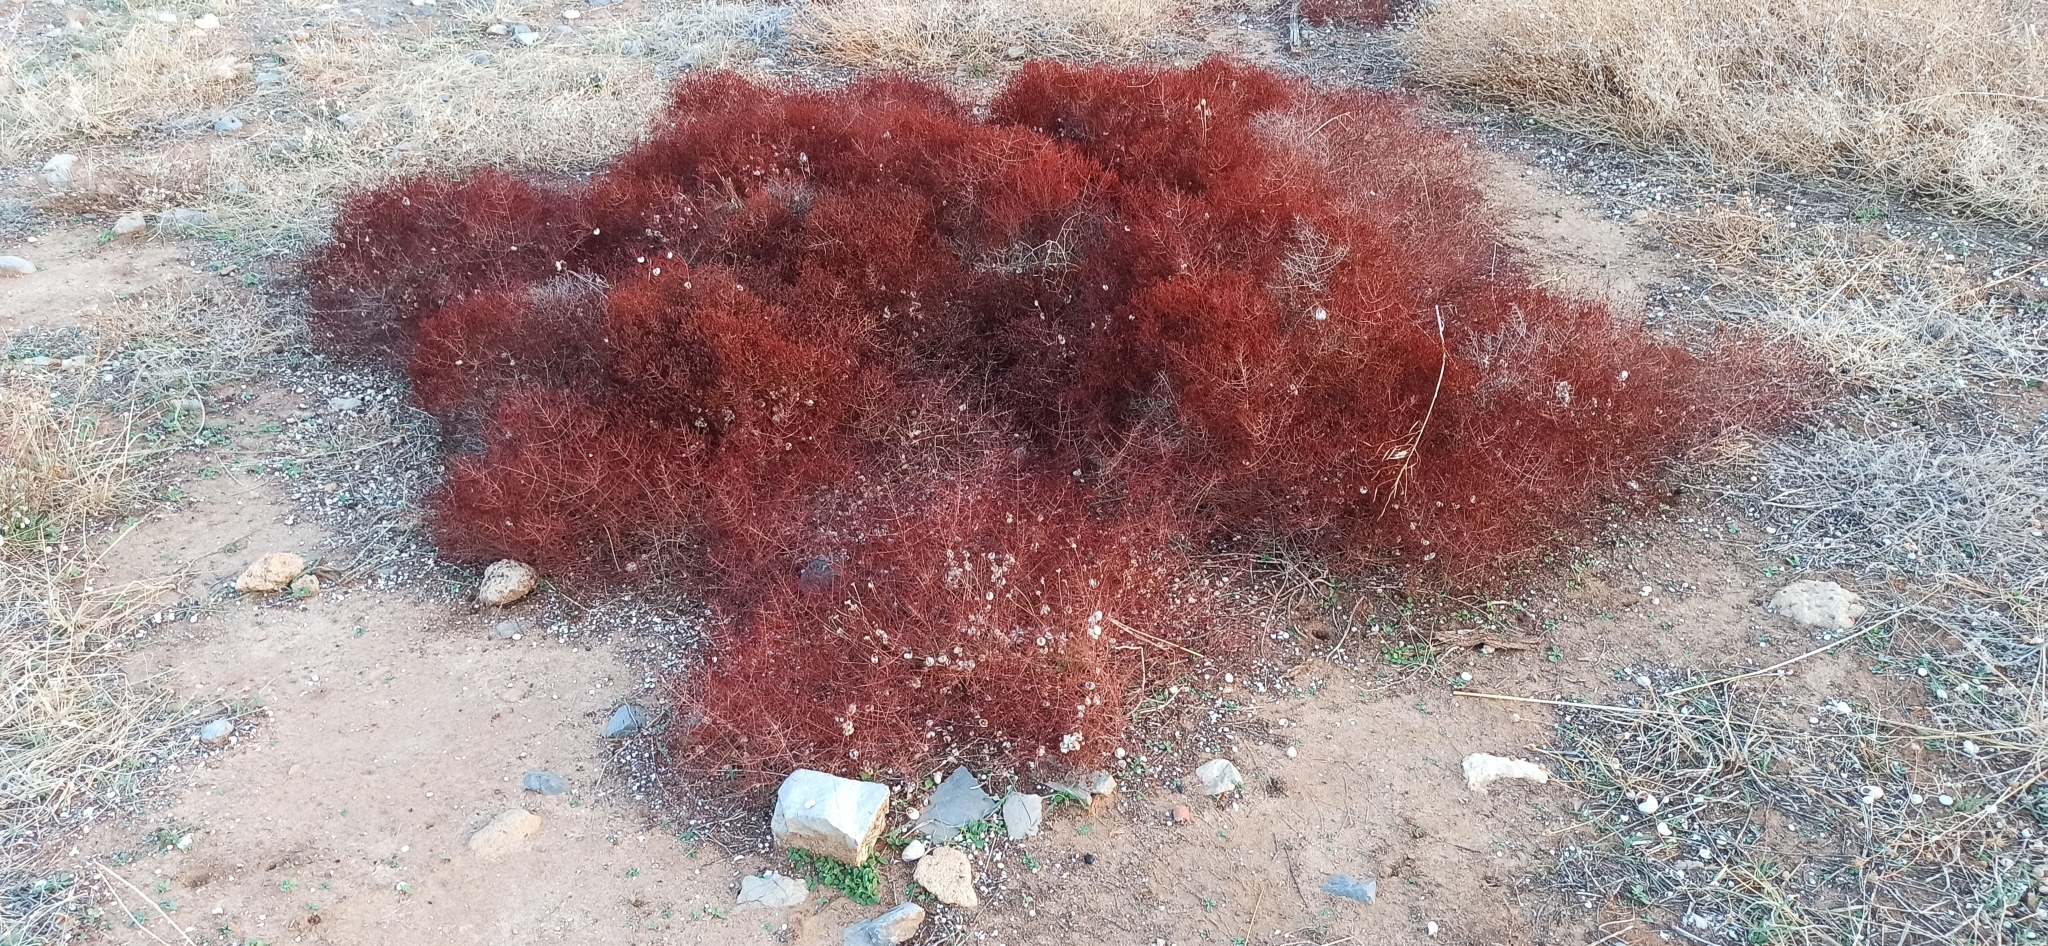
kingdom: Plantae
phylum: Tracheophyta
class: Magnoliopsida
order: Malpighiales
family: Hypericaceae
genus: Hypericum
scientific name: Hypericum triquetrifolium
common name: Tangled hypericum
